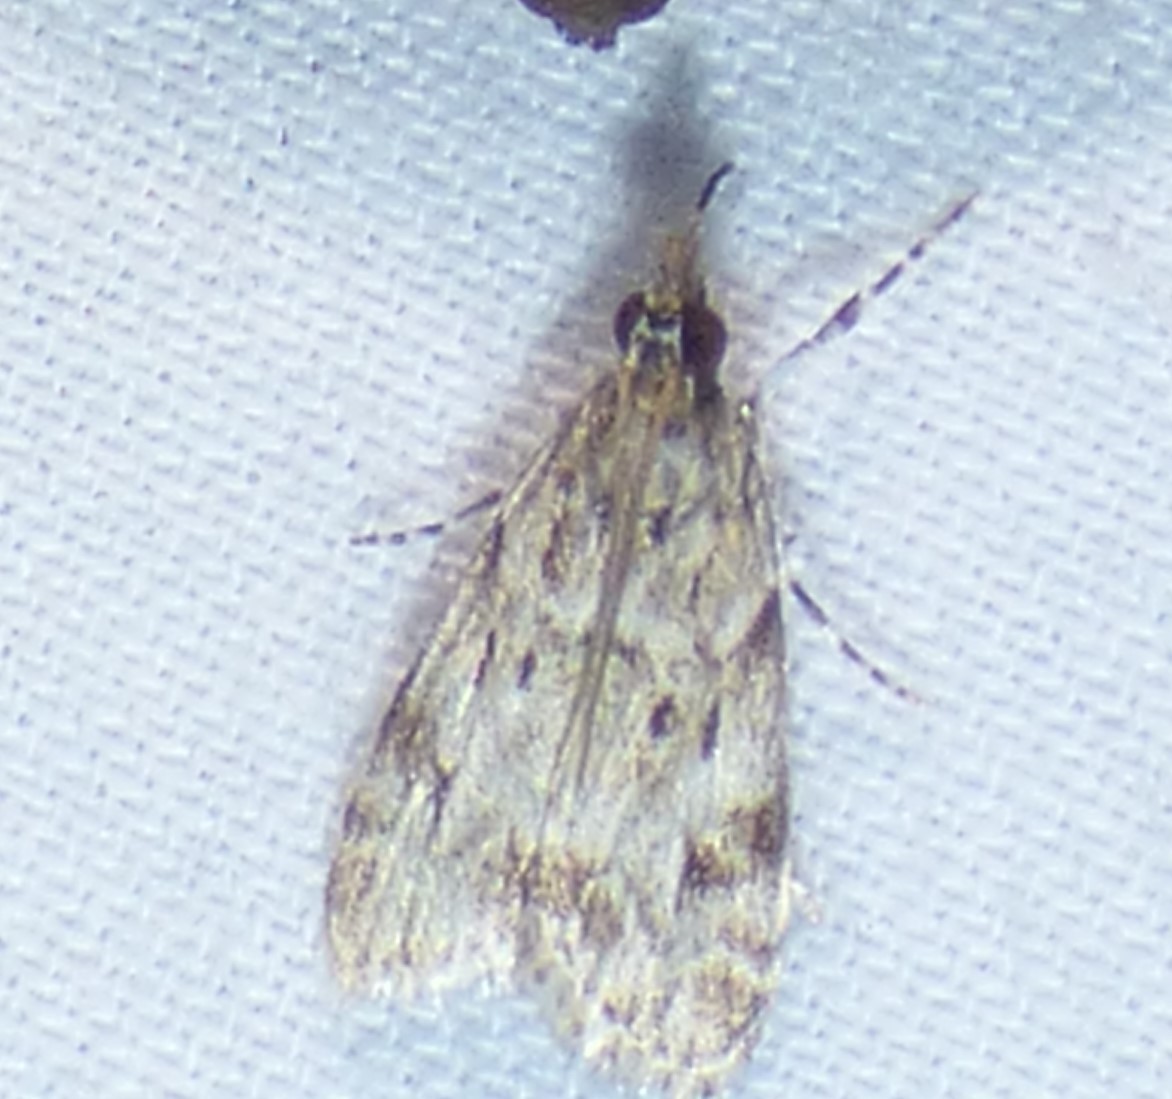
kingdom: Animalia
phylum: Arthropoda
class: Insecta
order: Lepidoptera
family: Crambidae
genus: Eudonia
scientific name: Eudonia heterosalis
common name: Mcdunnough's eudonia
